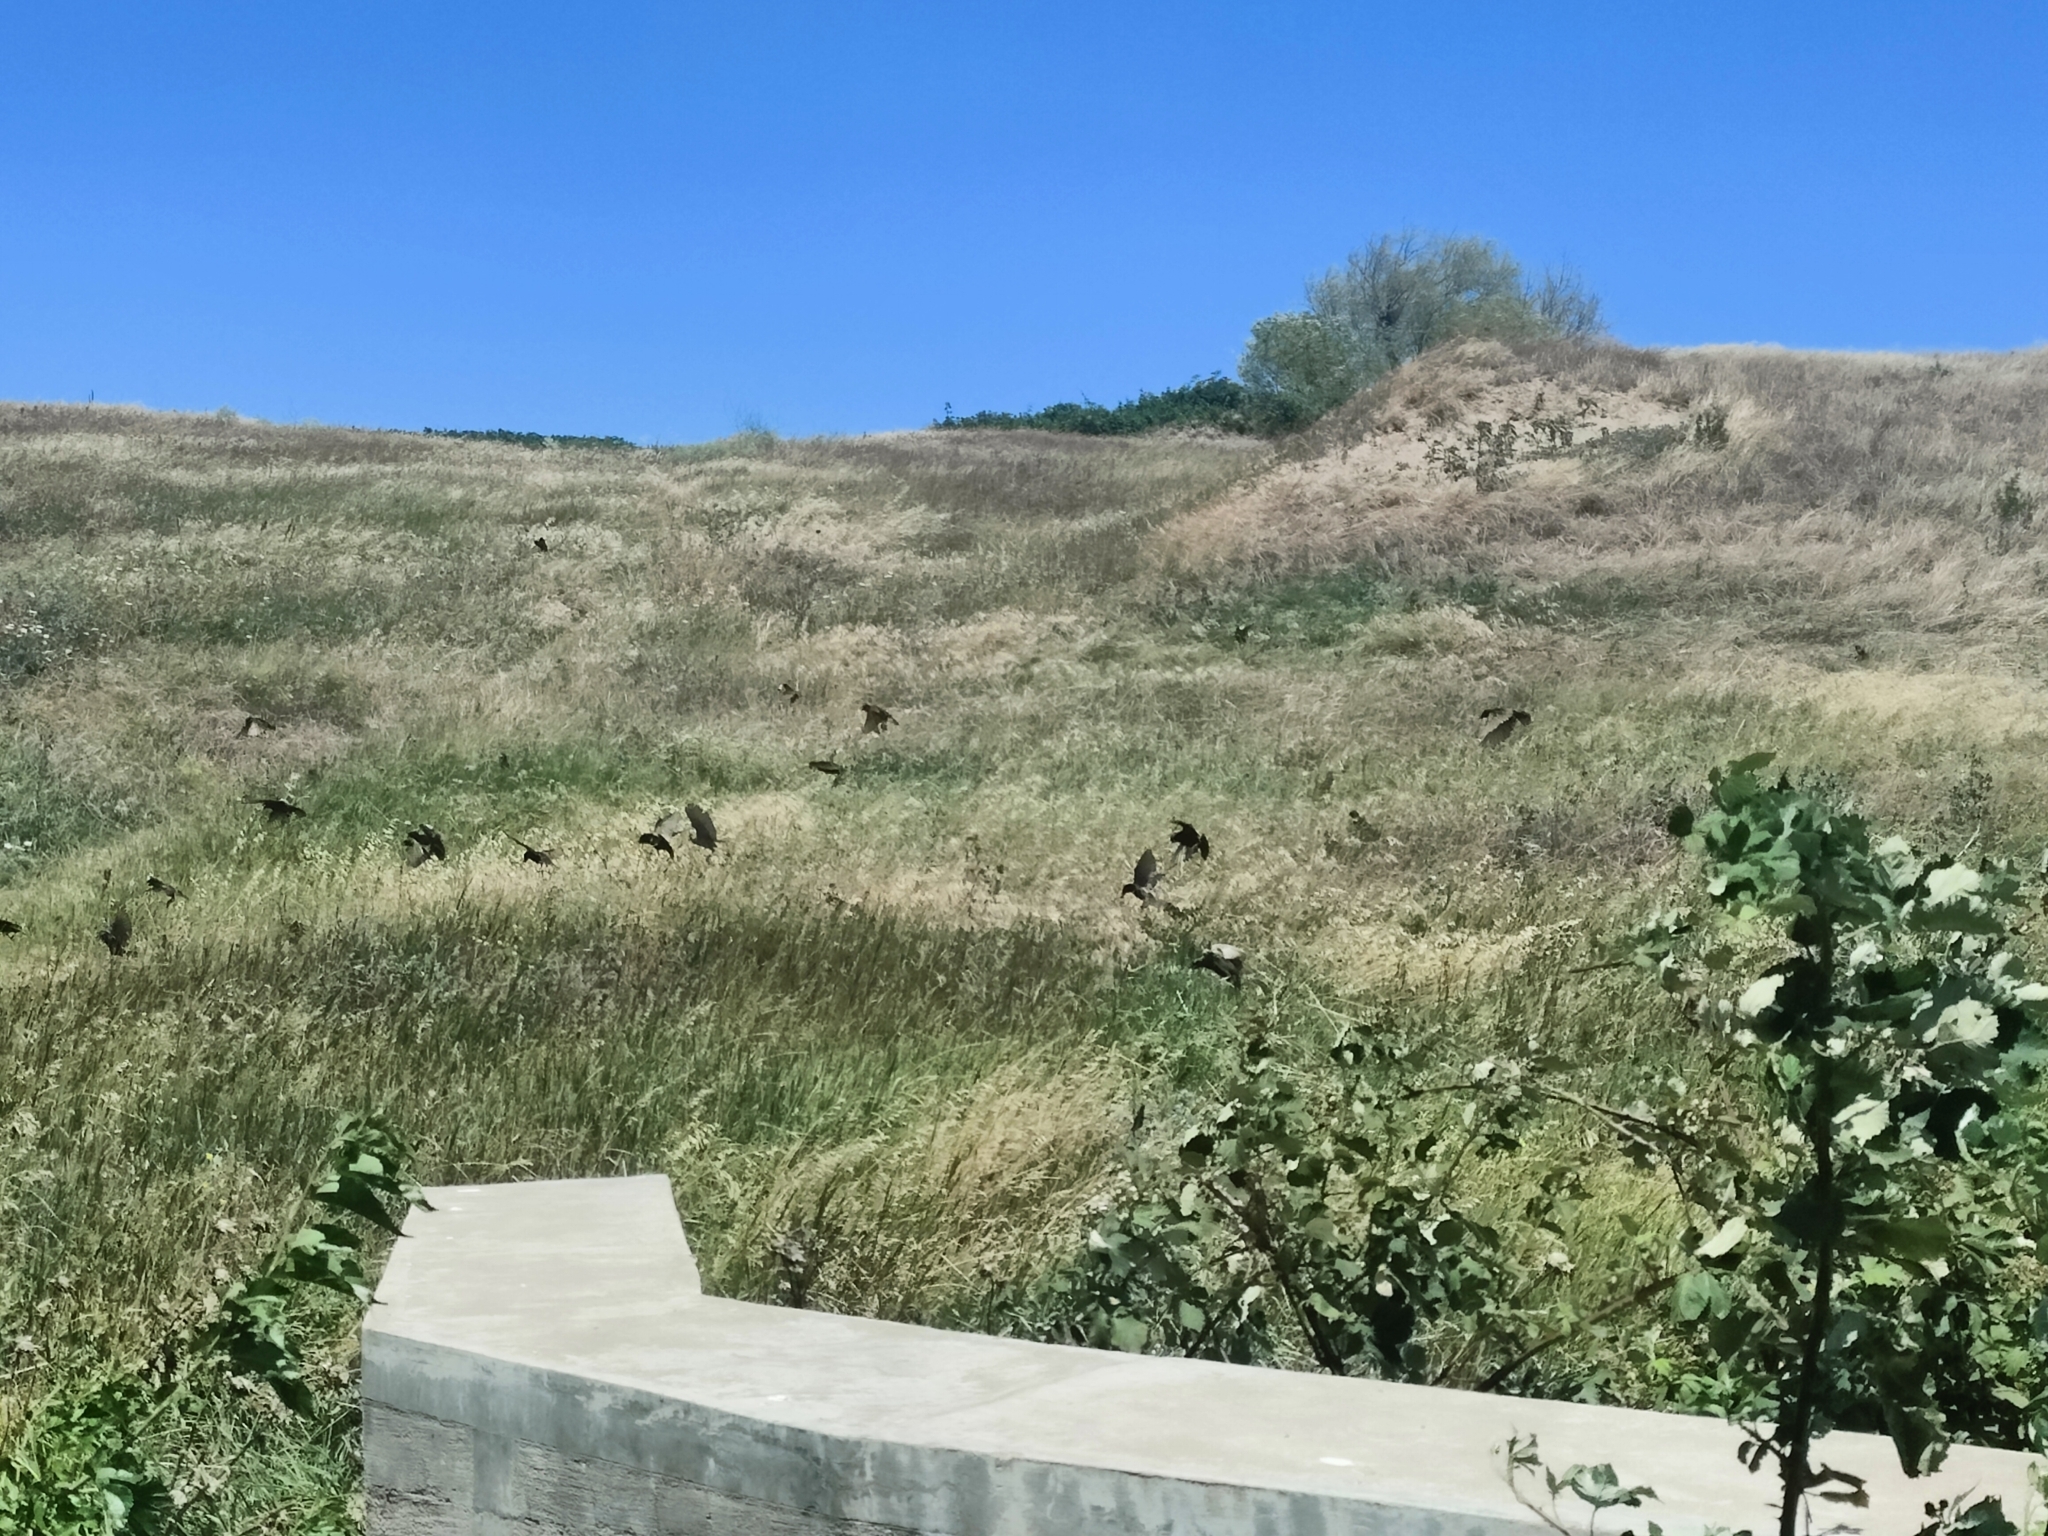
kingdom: Animalia
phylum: Chordata
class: Aves
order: Passeriformes
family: Sturnidae
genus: Sturnus
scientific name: Sturnus vulgaris
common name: Common starling
